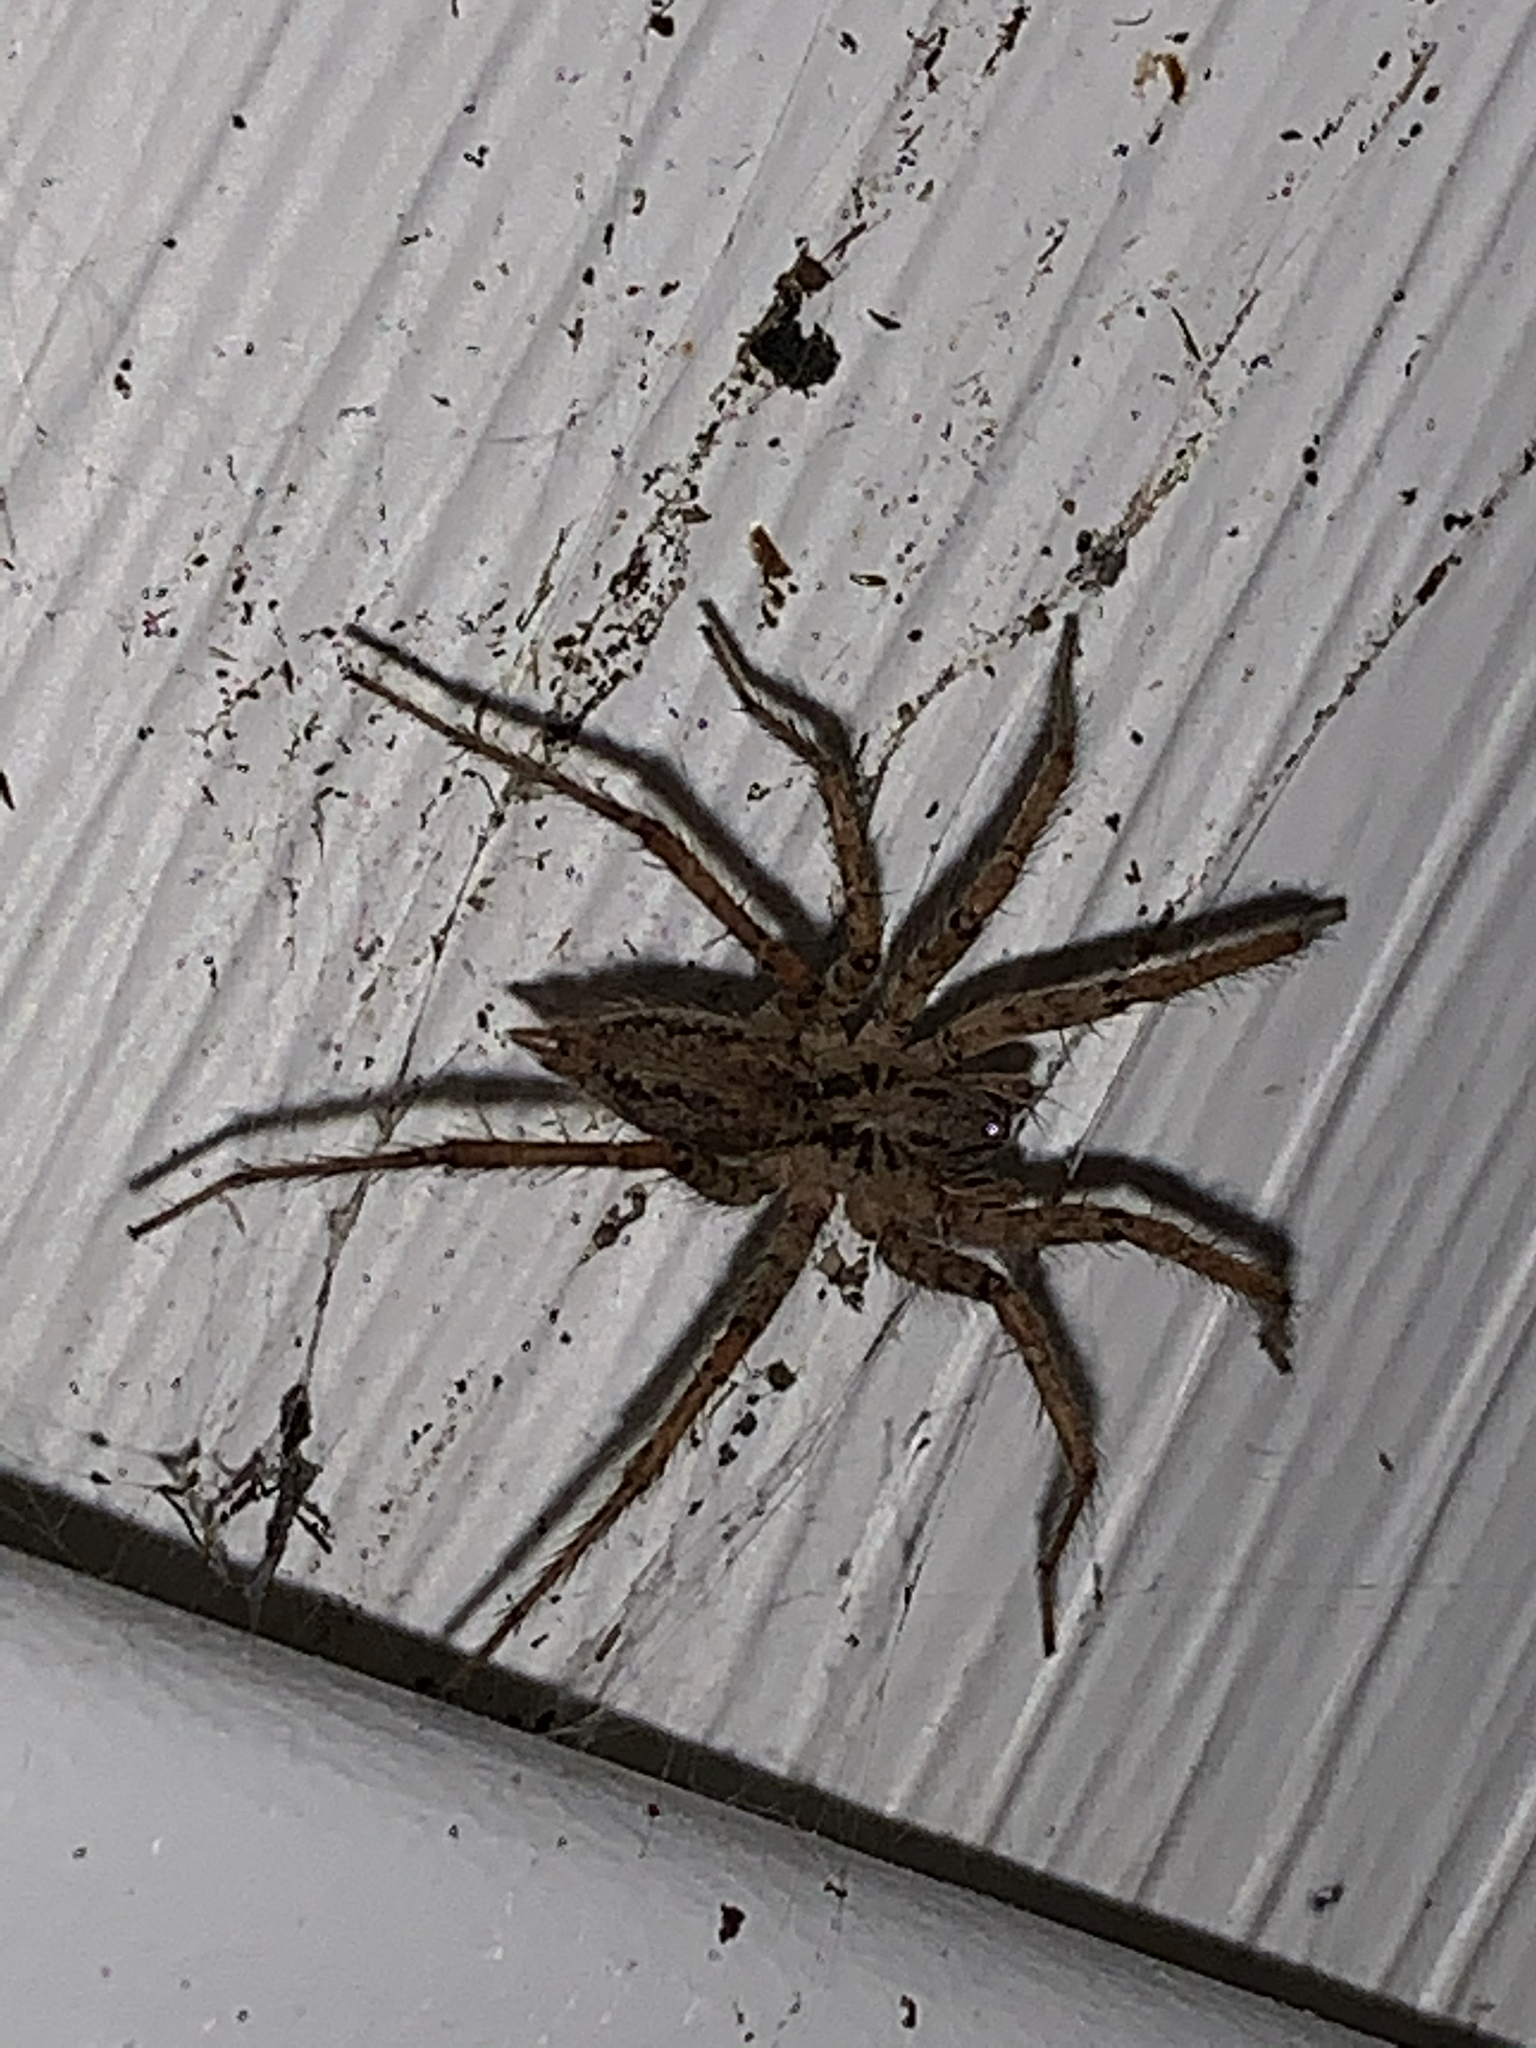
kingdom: Animalia
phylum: Arthropoda
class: Arachnida
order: Araneae
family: Agelenidae
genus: Barronopsis
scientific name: Barronopsis jeffersi
